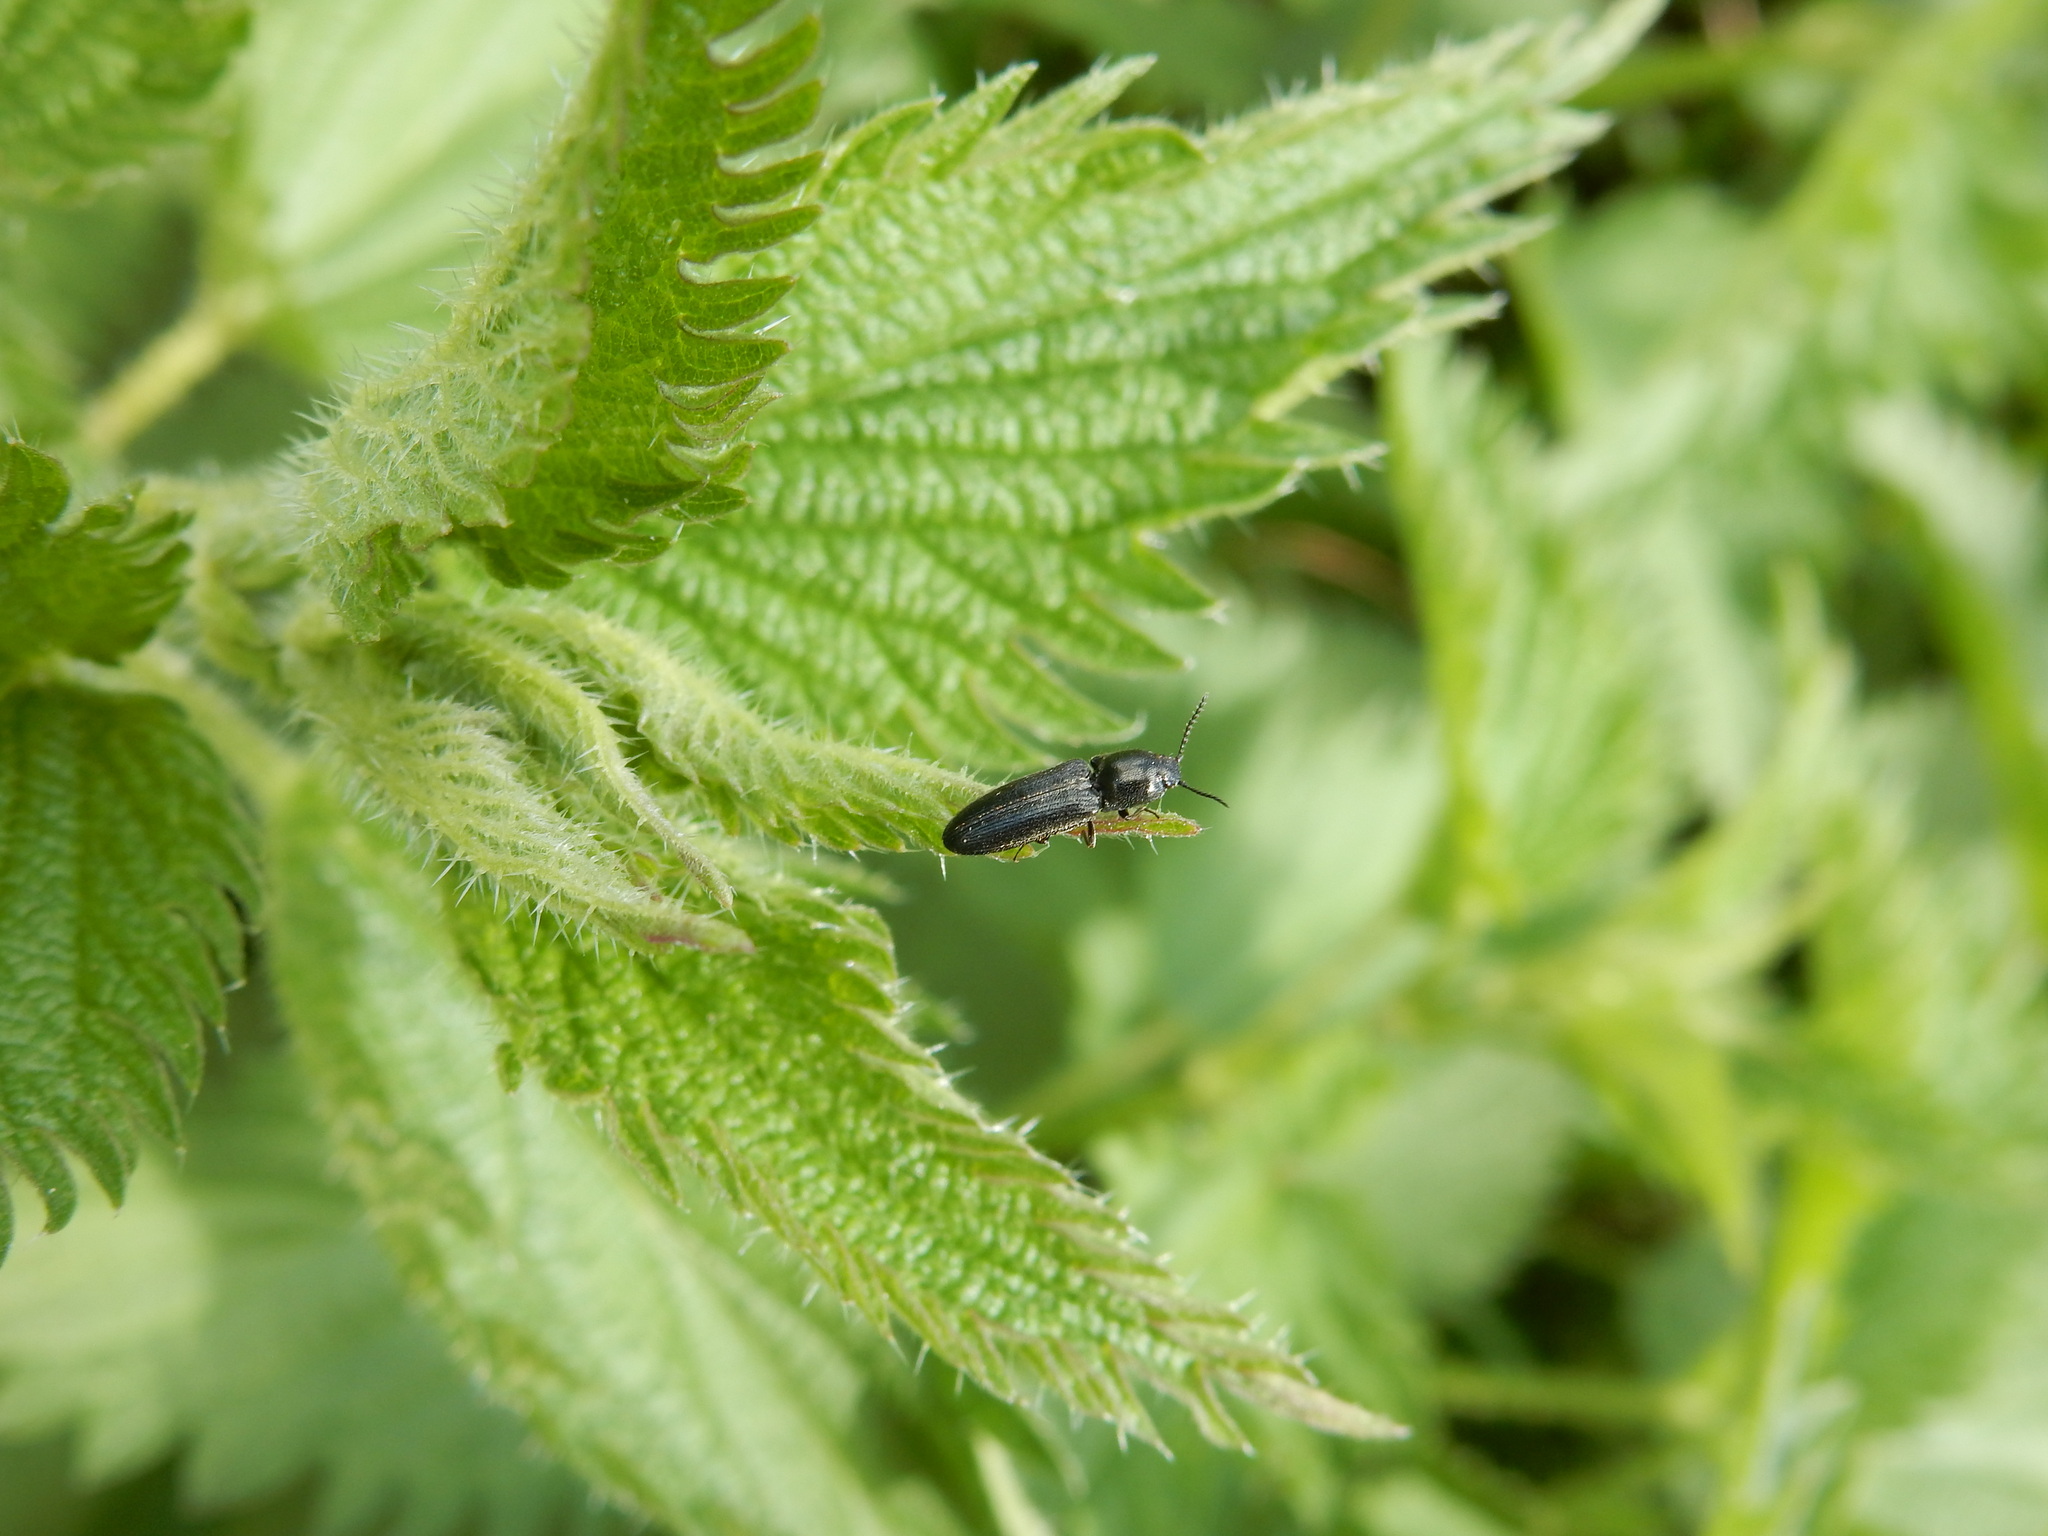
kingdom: Animalia
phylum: Arthropoda
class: Insecta
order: Coleoptera
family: Elateridae
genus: Limonius
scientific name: Limonius minutus
